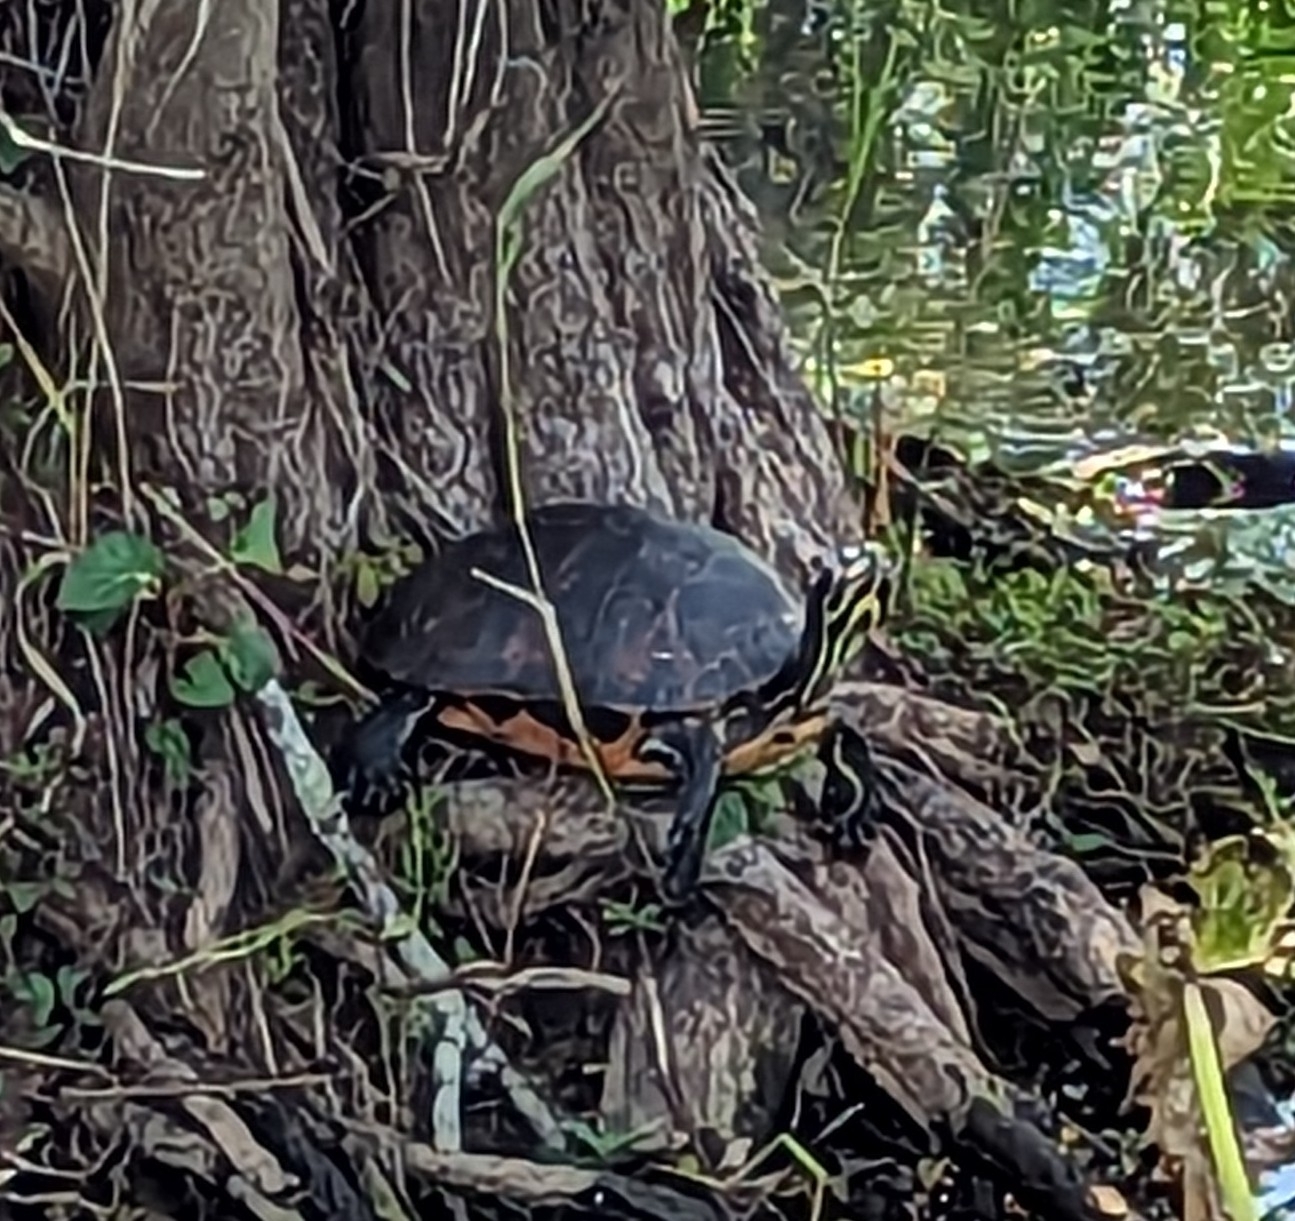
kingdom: Animalia
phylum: Chordata
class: Testudines
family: Emydidae
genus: Pseudemys
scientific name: Pseudemys nelsoni
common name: Florida red-bellied turtle
